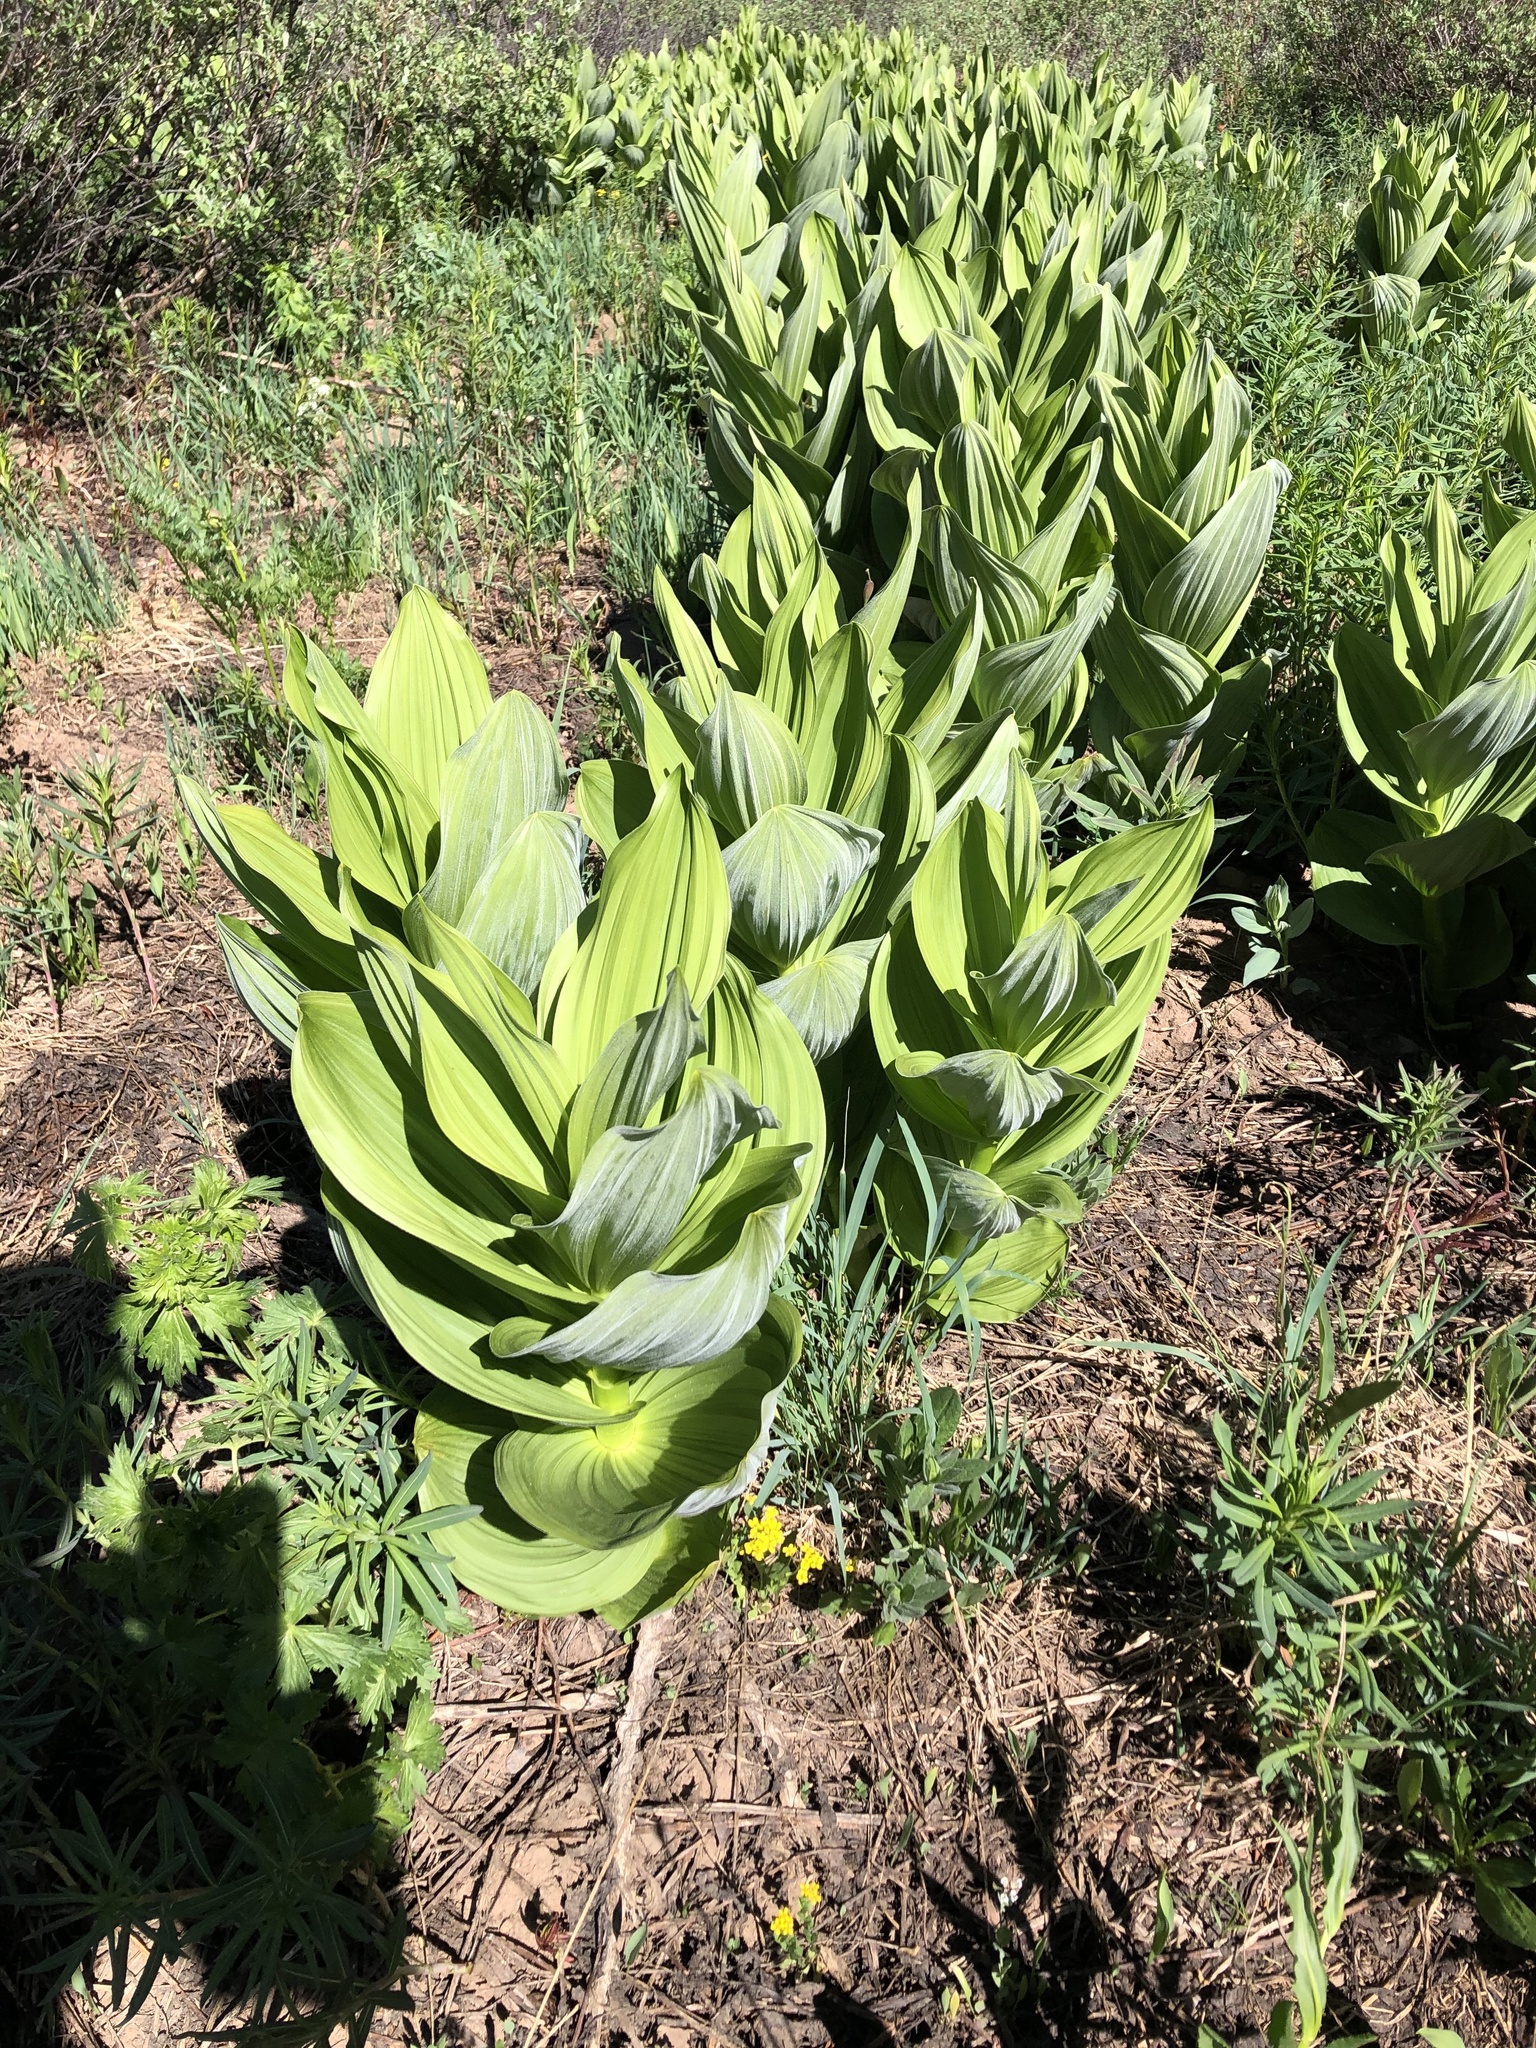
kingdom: Plantae
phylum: Tracheophyta
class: Liliopsida
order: Liliales
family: Melanthiaceae
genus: Veratrum
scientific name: Veratrum californicum
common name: California veratrum
